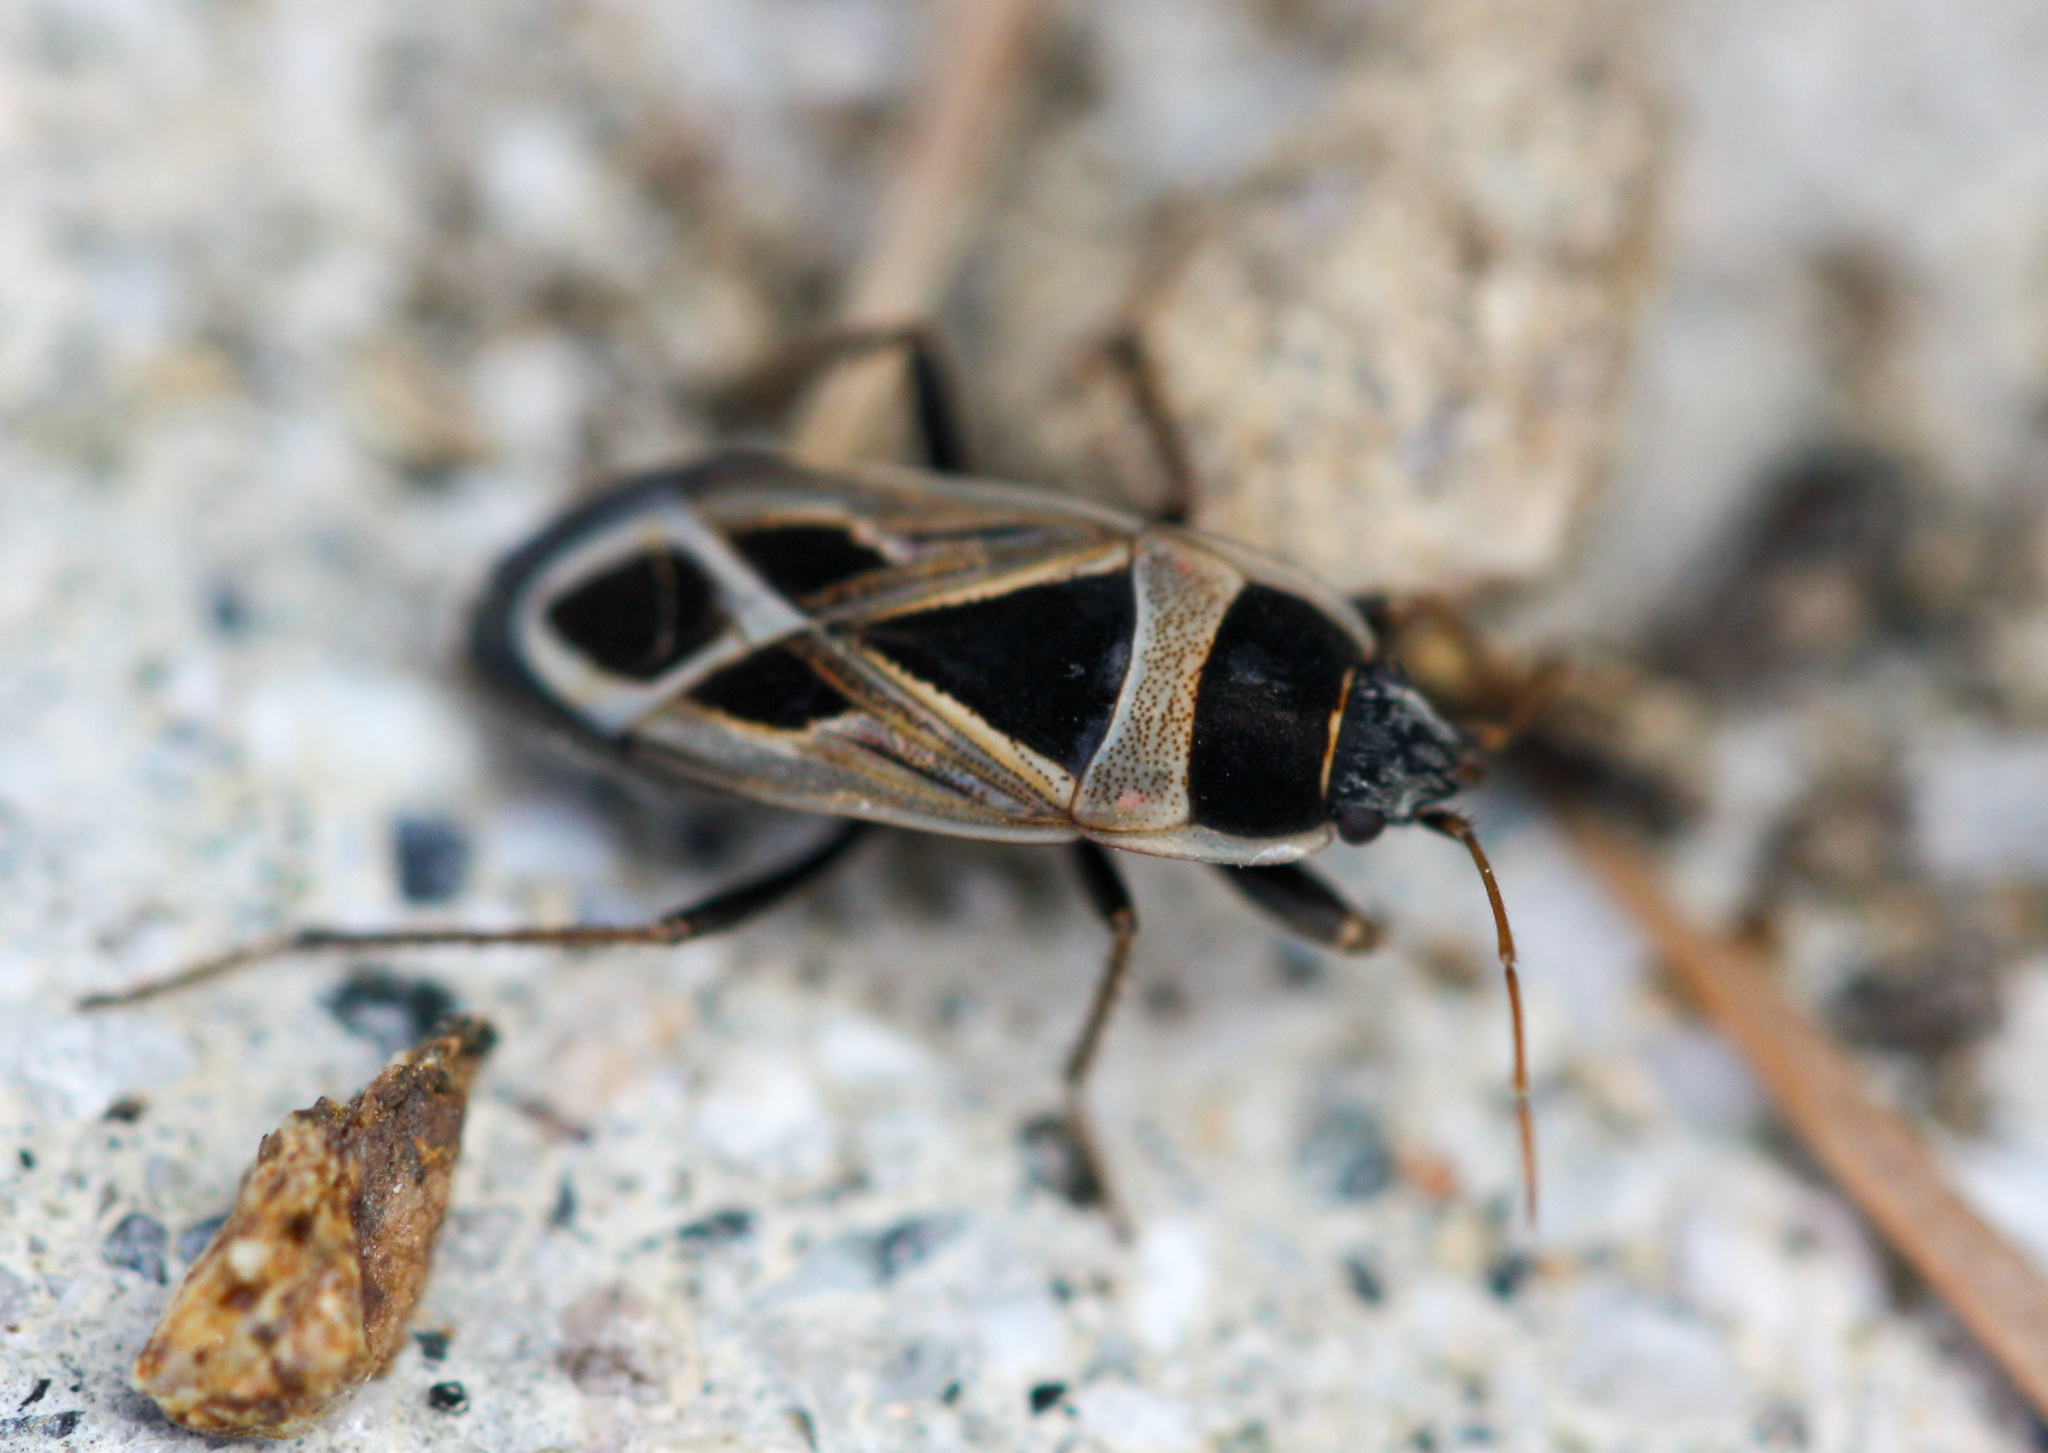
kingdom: Animalia
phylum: Arthropoda
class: Insecta
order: Hemiptera
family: Rhyparochromidae
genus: Xanthochilus
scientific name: Xanthochilus saturnius
